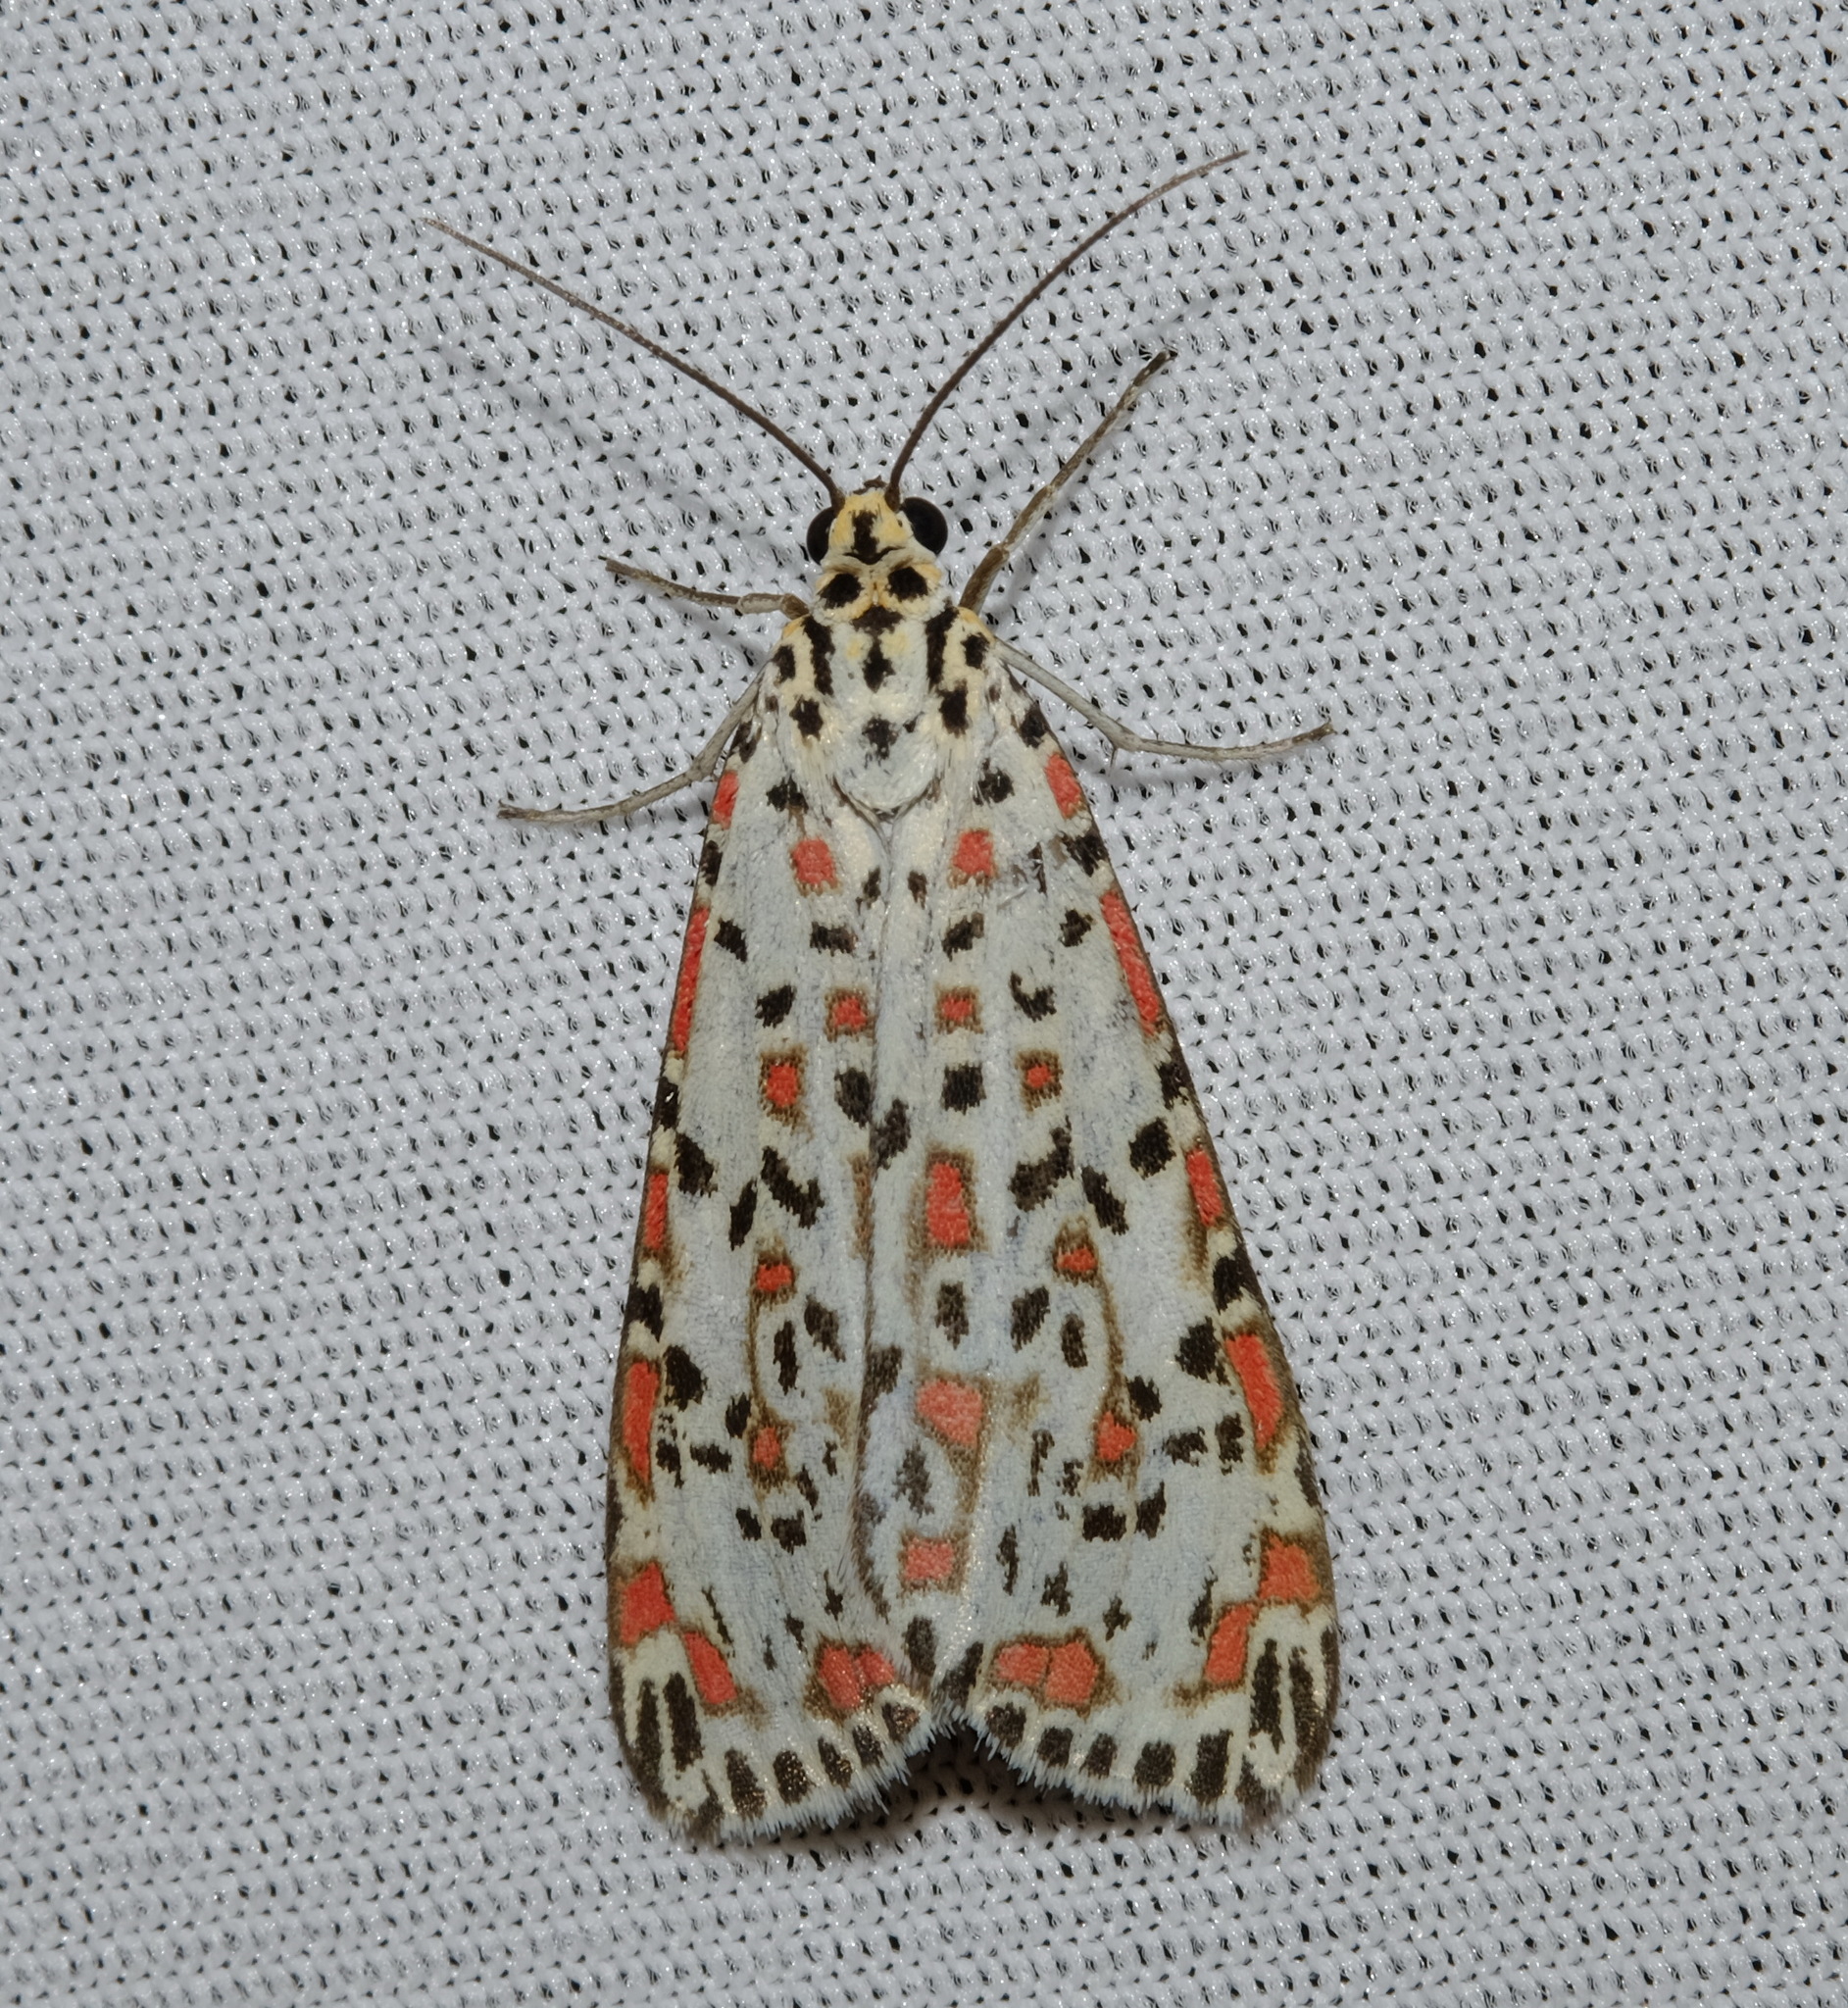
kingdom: Animalia
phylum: Arthropoda
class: Insecta
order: Lepidoptera
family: Erebidae
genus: Utetheisa
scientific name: Utetheisa pulchelloides
